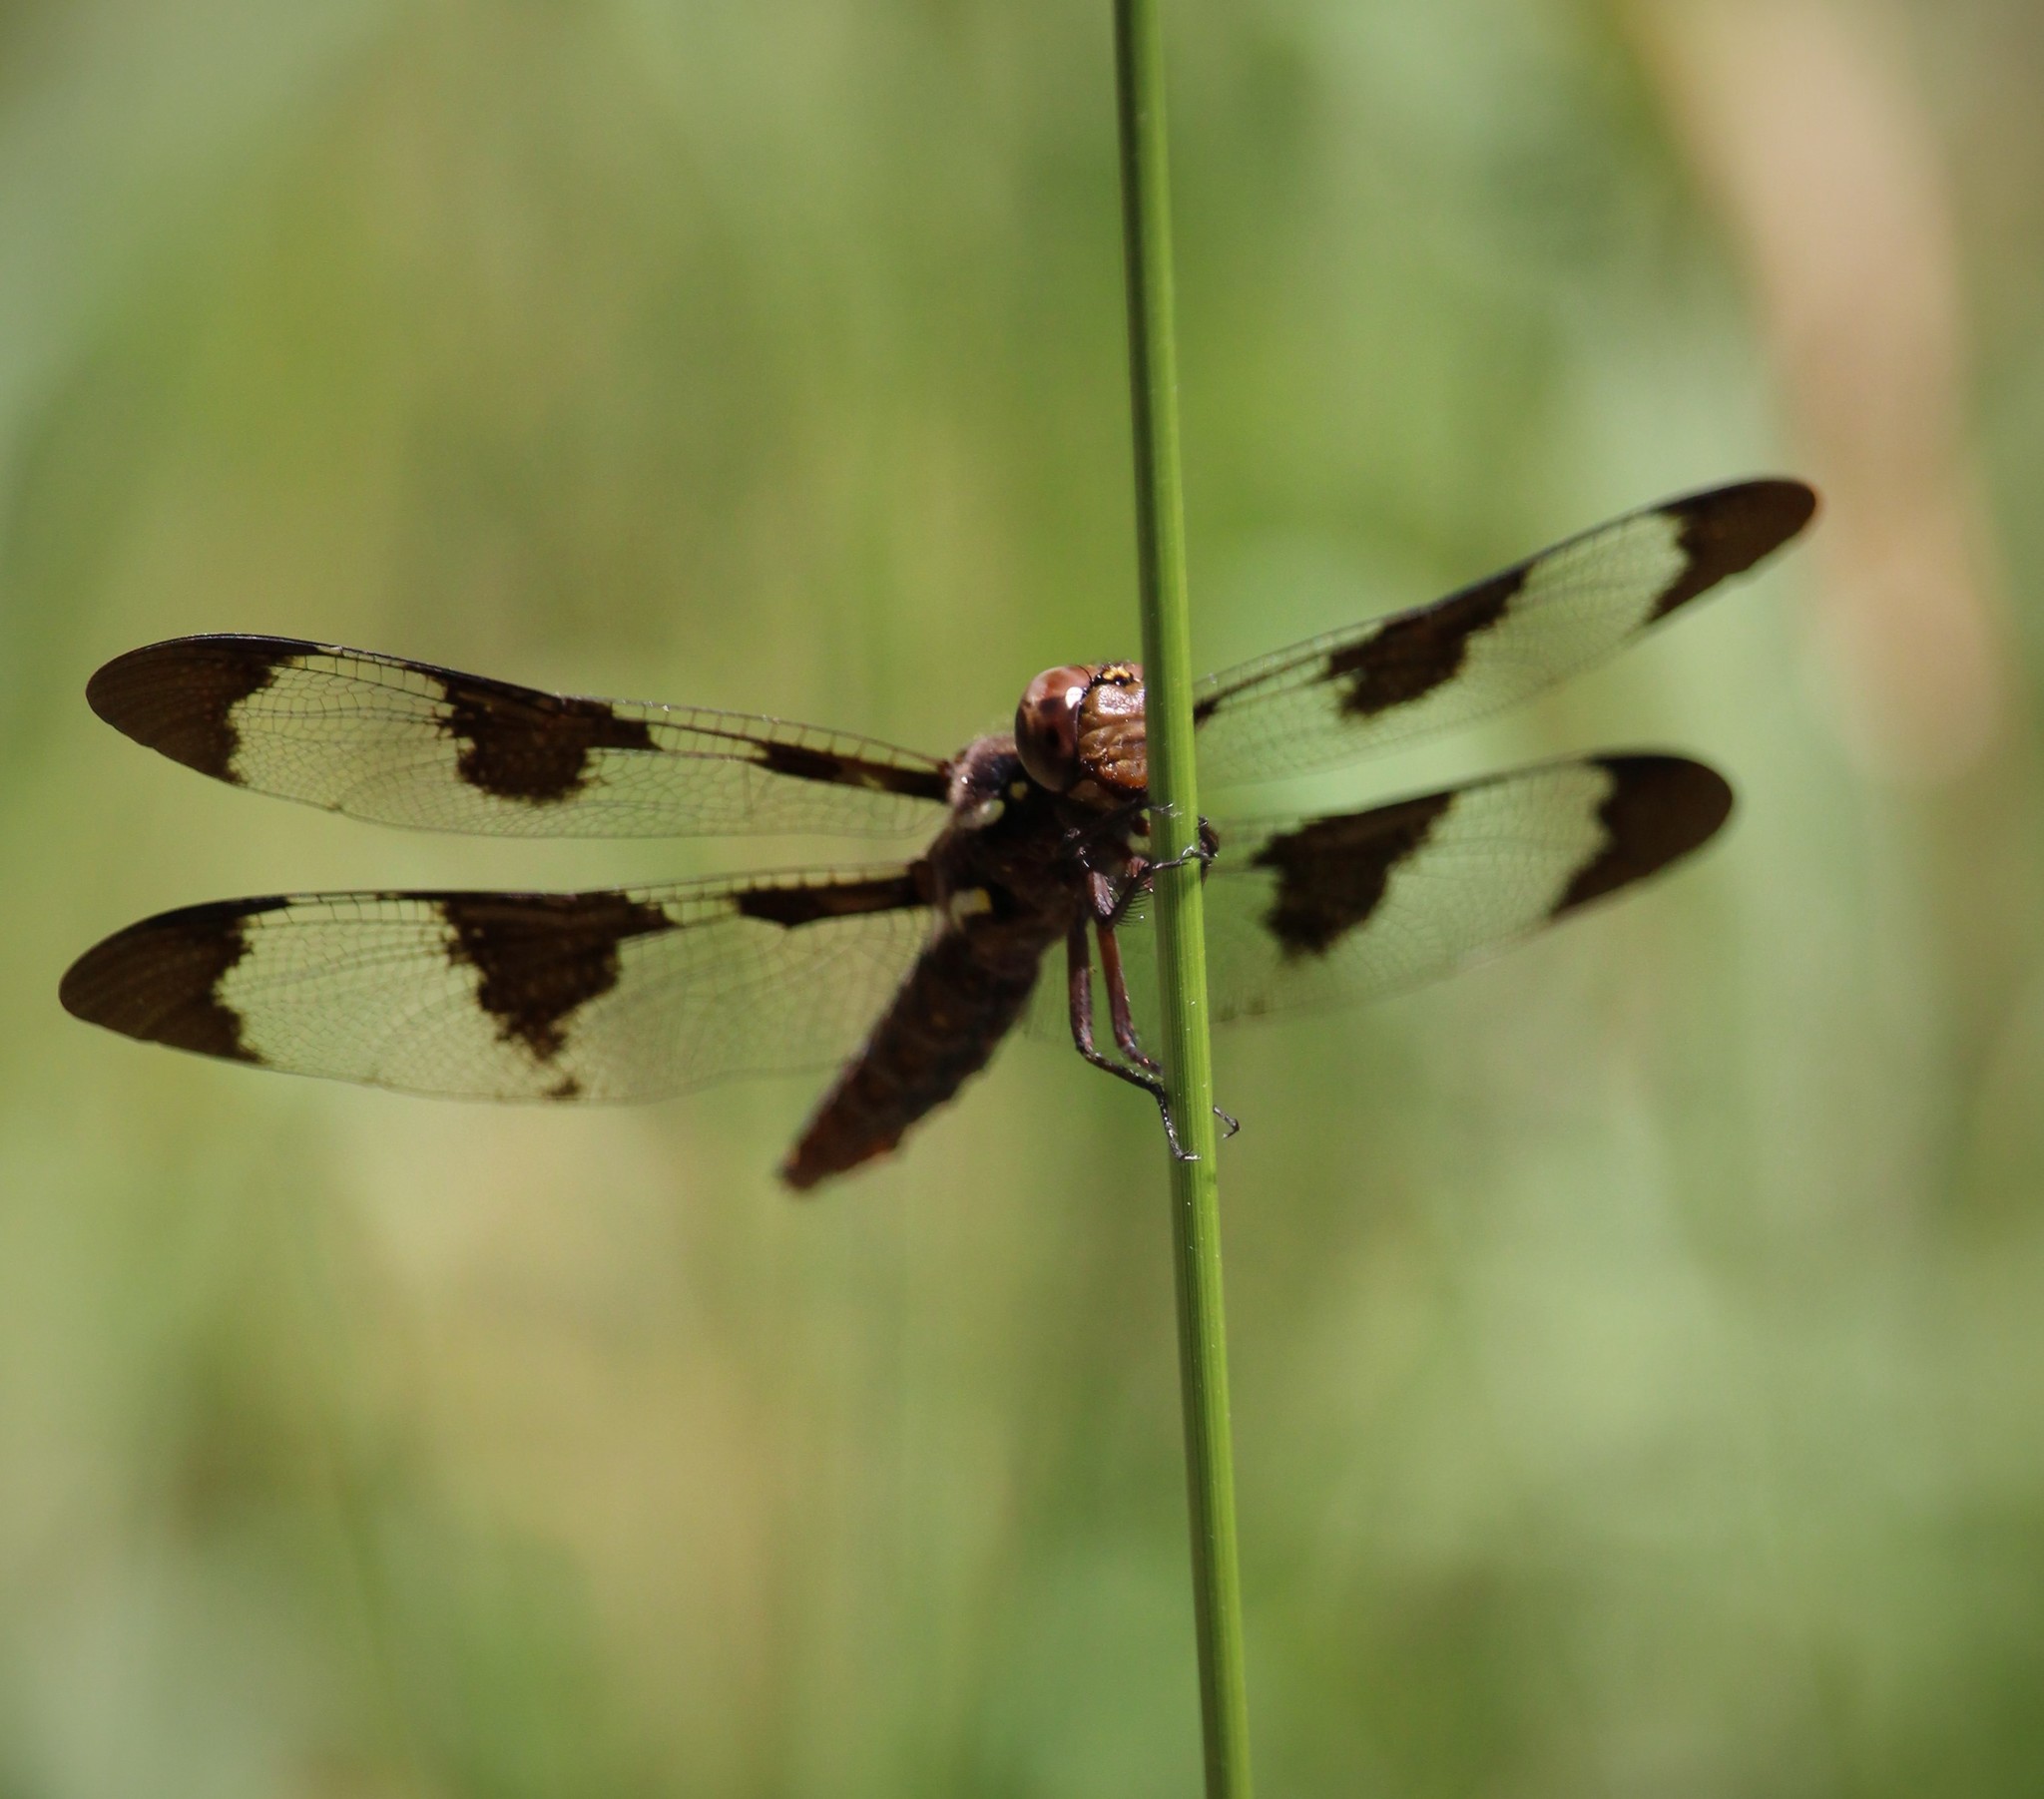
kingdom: Animalia
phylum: Arthropoda
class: Insecta
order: Odonata
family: Libellulidae
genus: Plathemis
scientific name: Plathemis lydia
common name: Common whitetail
